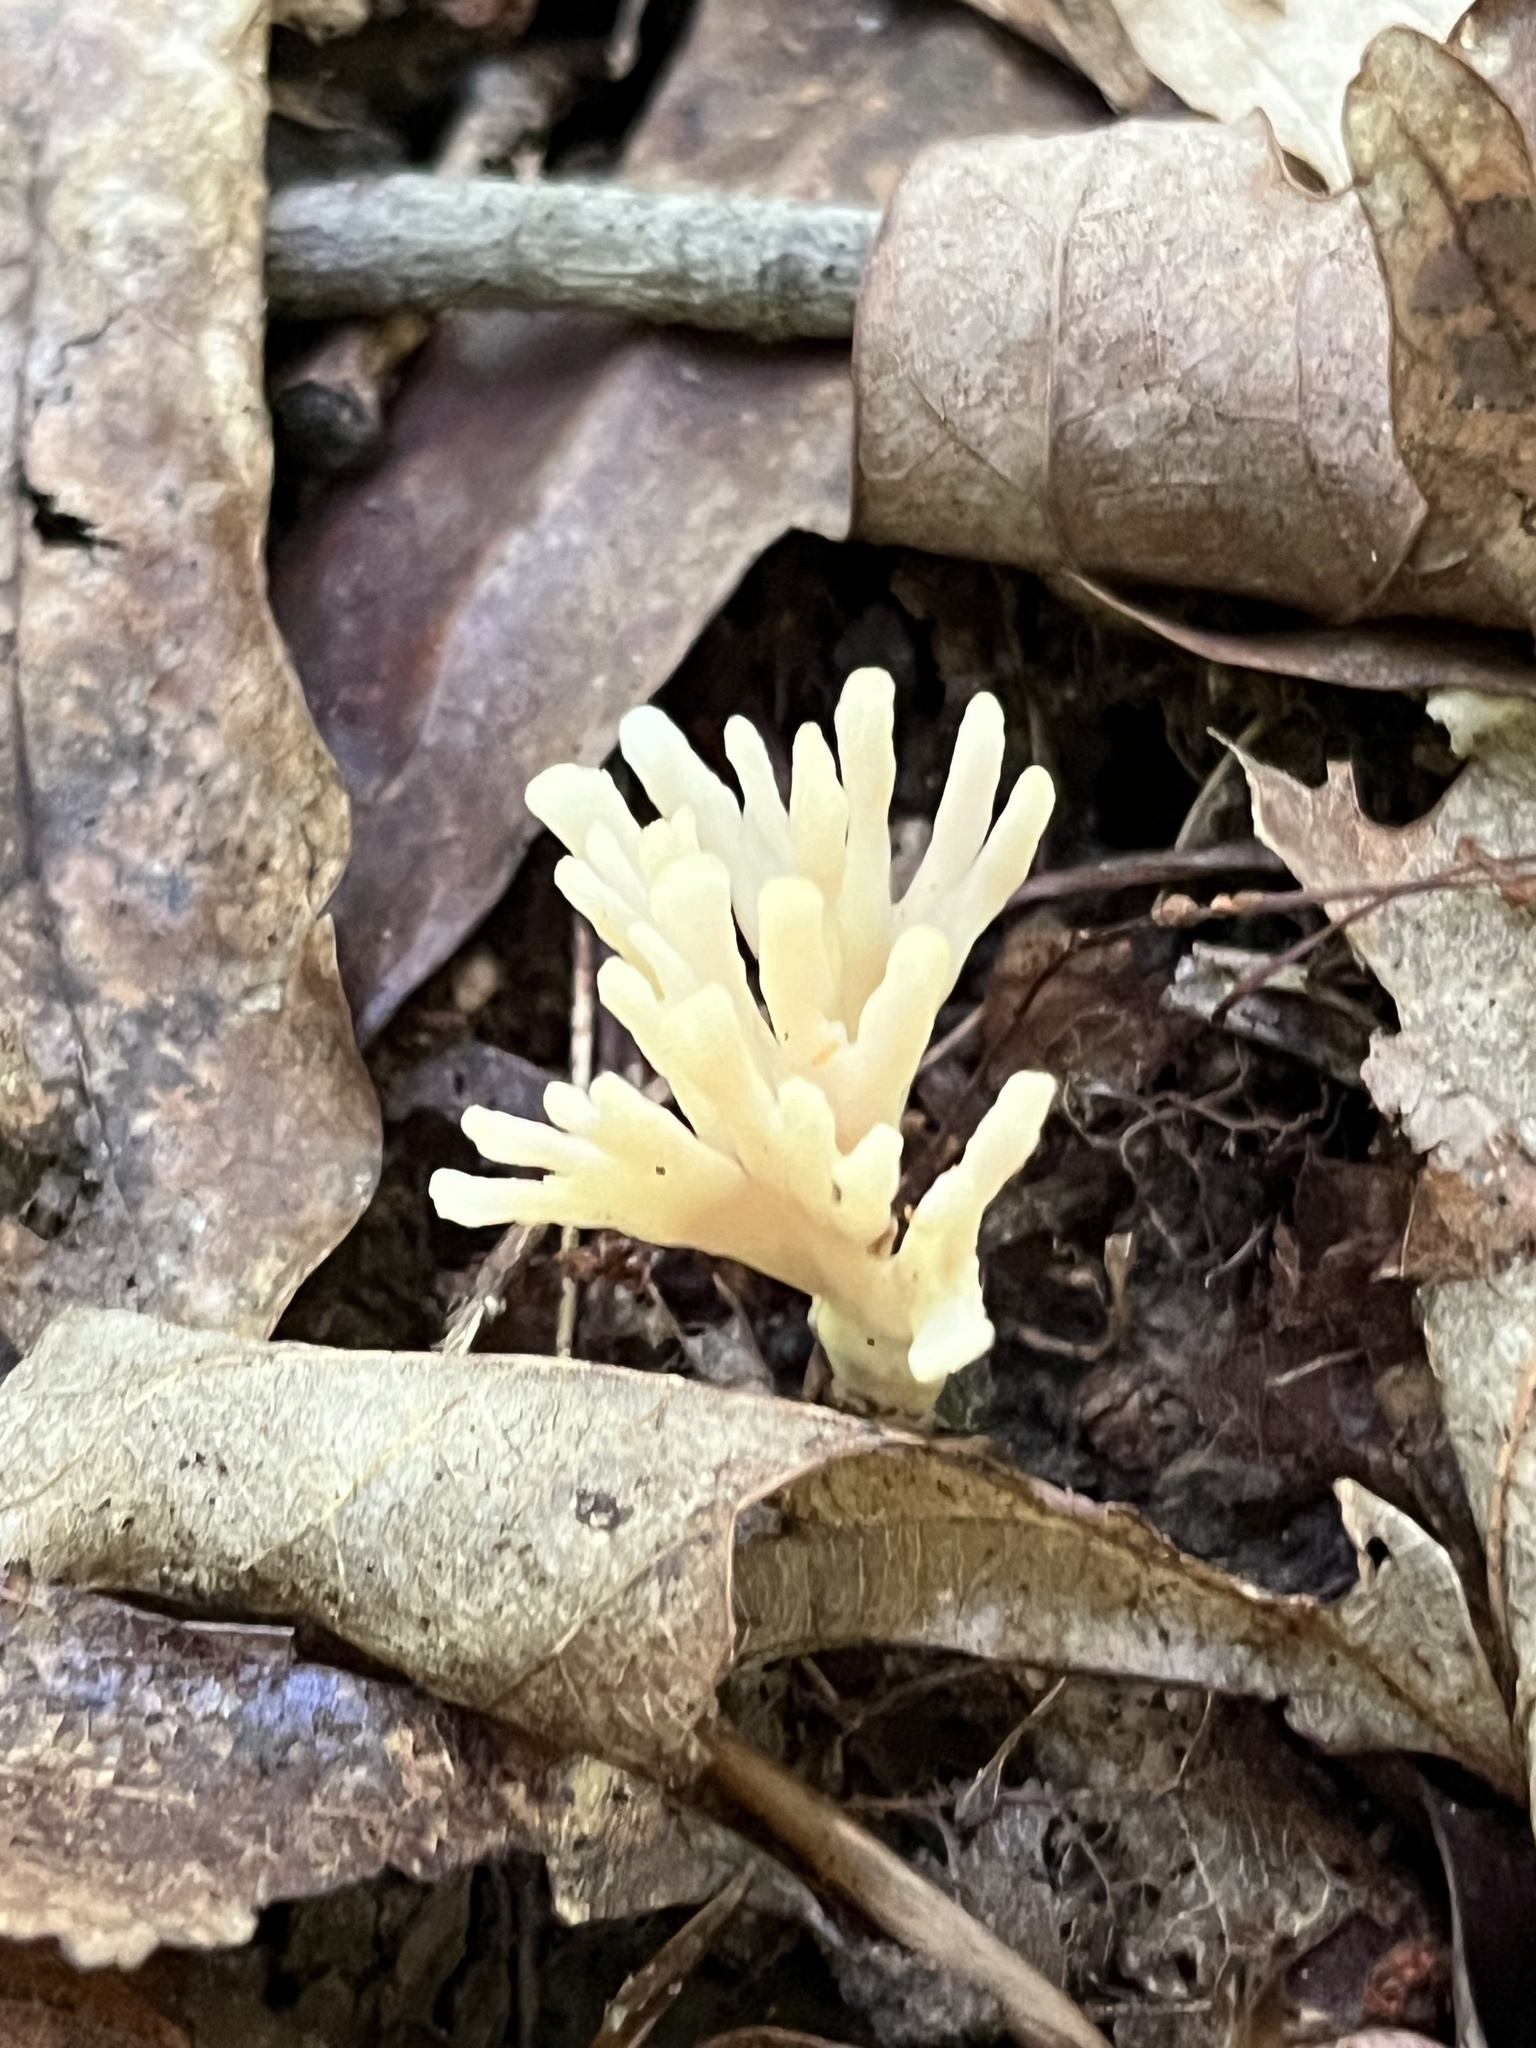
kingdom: Fungi
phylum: Basidiomycota
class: Agaricomycetes
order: Sebacinales
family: Sebacinaceae
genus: Sebacina
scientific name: Sebacina schweinitzii
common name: Jellied false coral fungus
